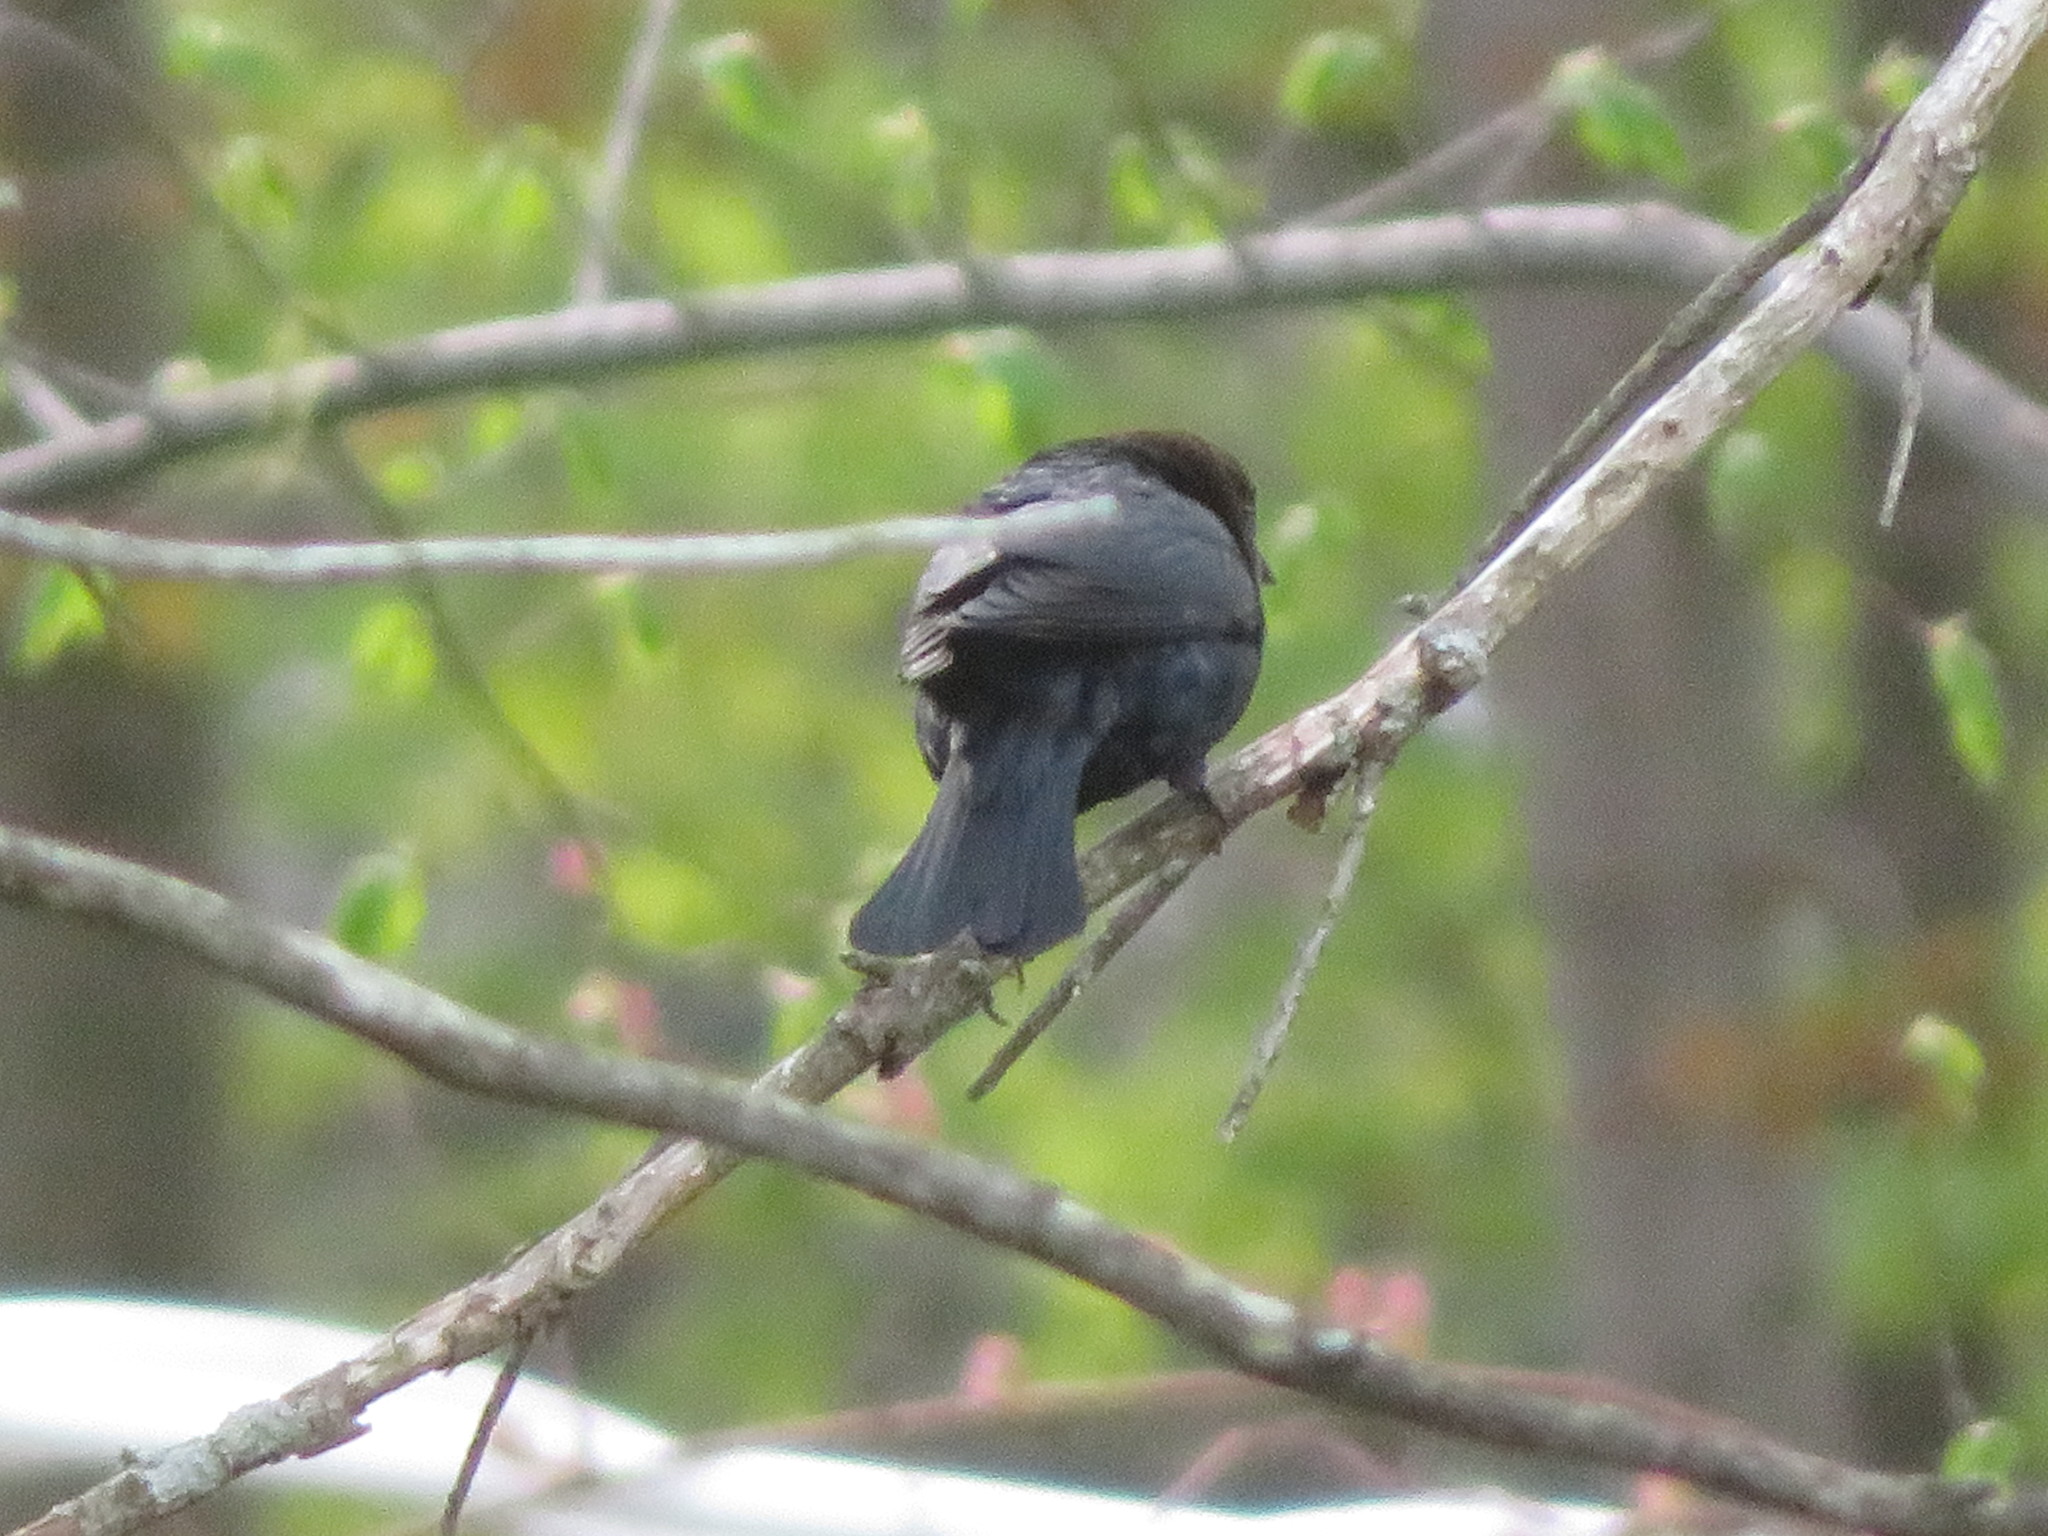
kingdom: Animalia
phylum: Chordata
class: Aves
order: Passeriformes
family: Icteridae
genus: Molothrus
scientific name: Molothrus ater
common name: Brown-headed cowbird
